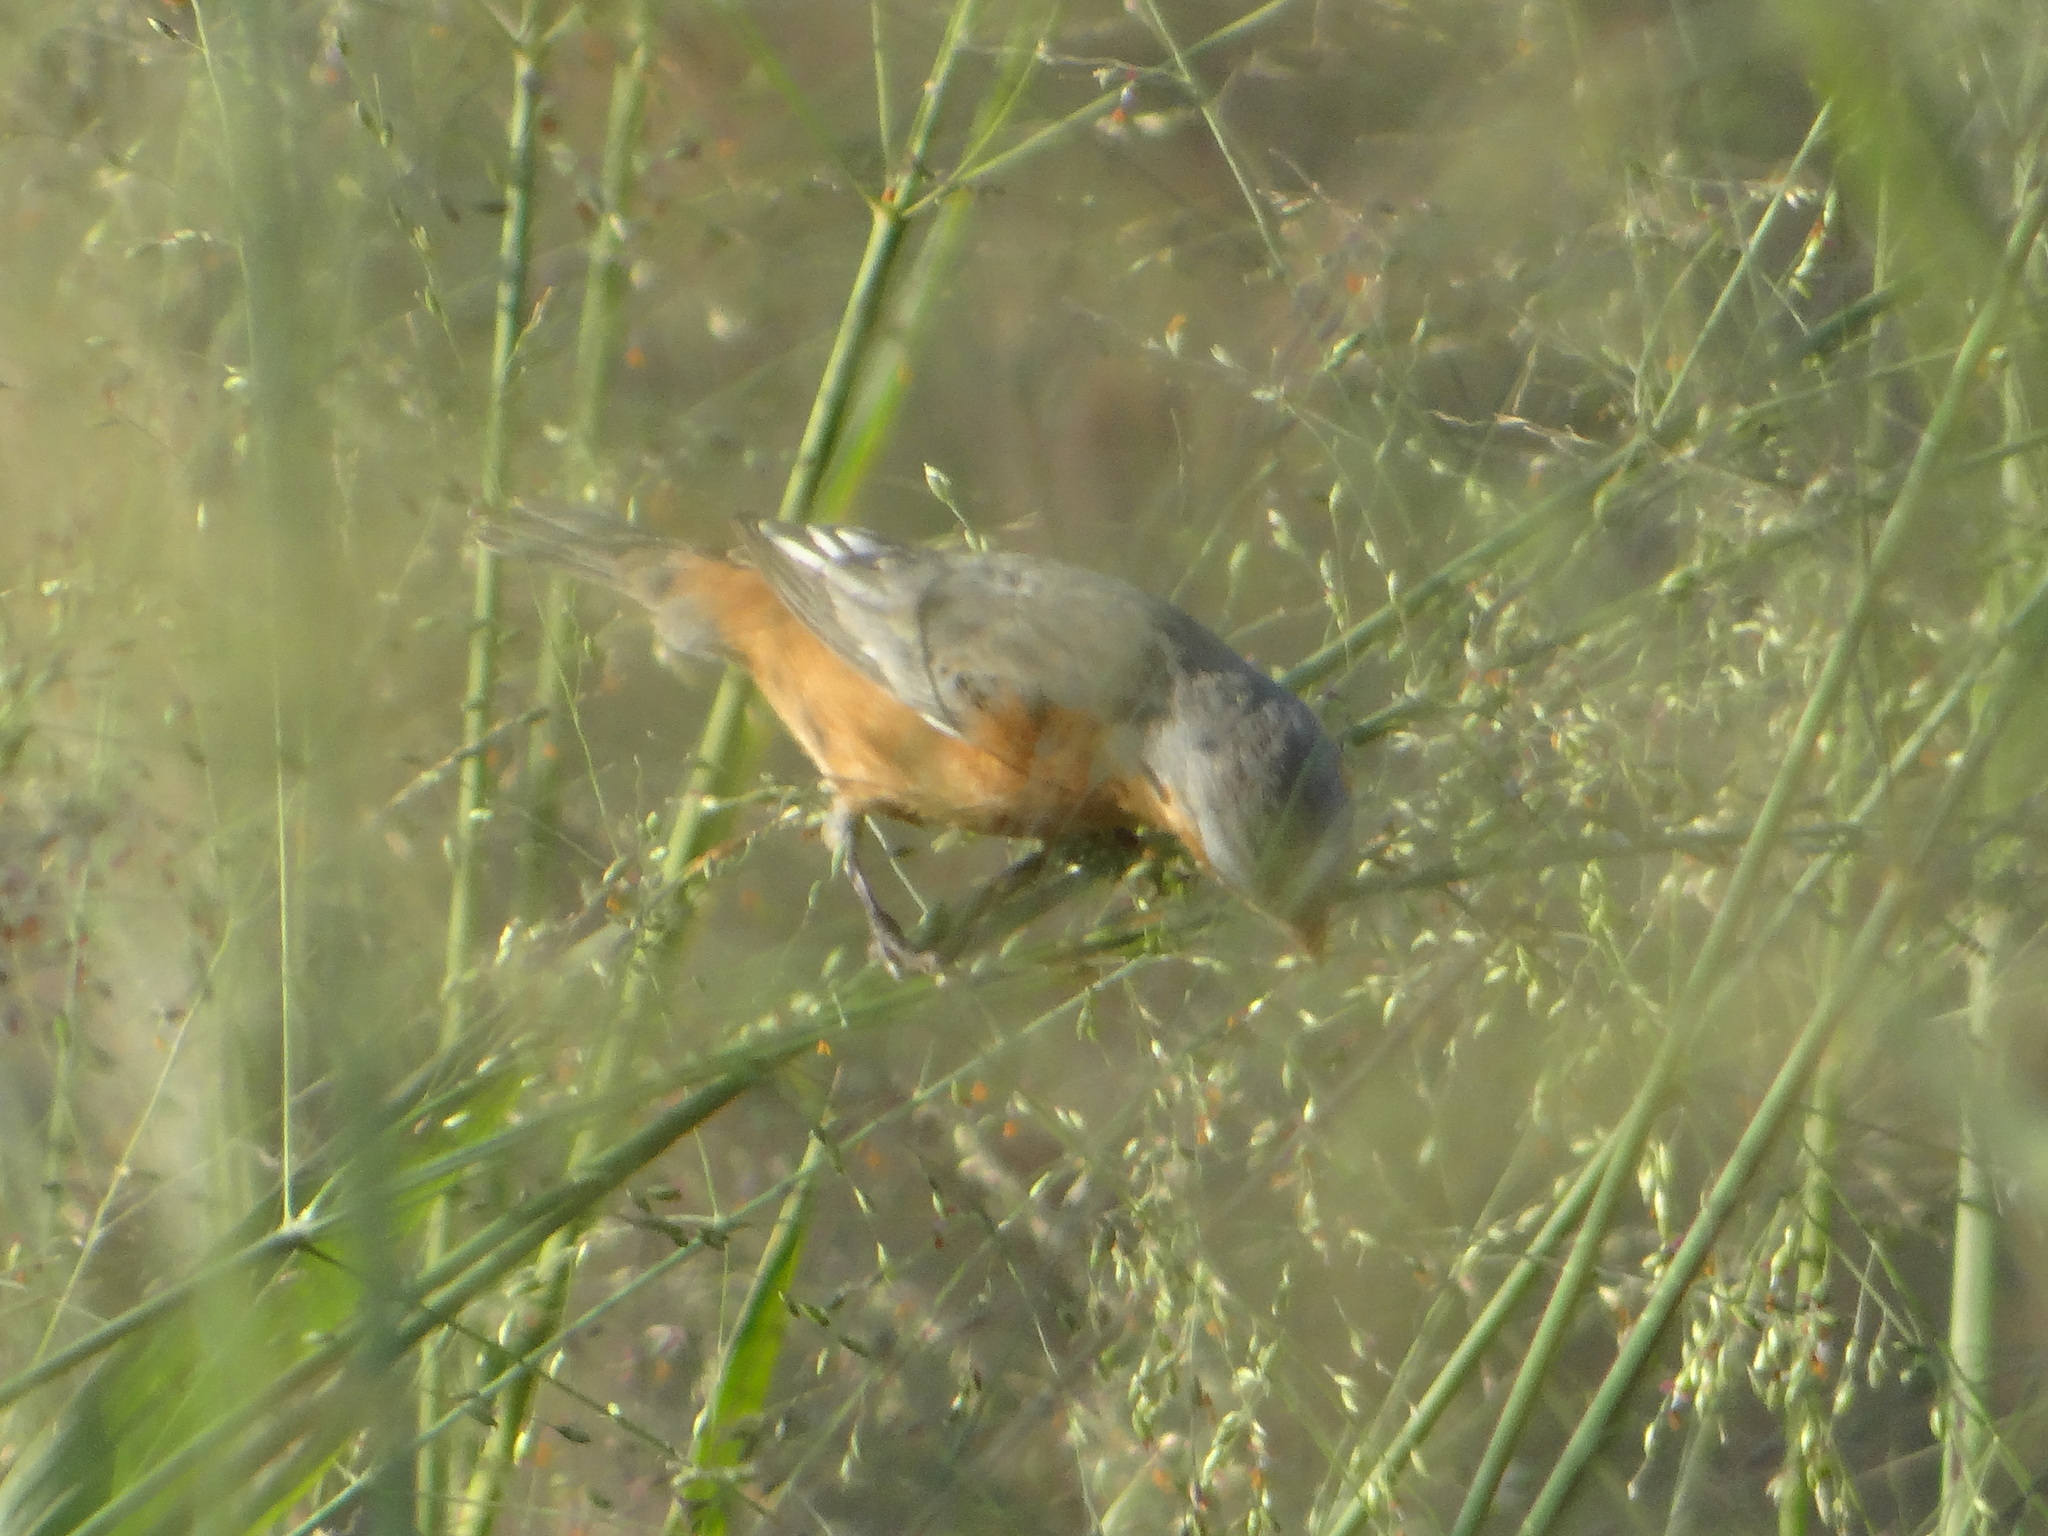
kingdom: Animalia
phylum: Chordata
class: Aves
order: Passeriformes
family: Thraupidae
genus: Sporophila
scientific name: Sporophila hypoxantha
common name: Tawny-bellied seedeater
